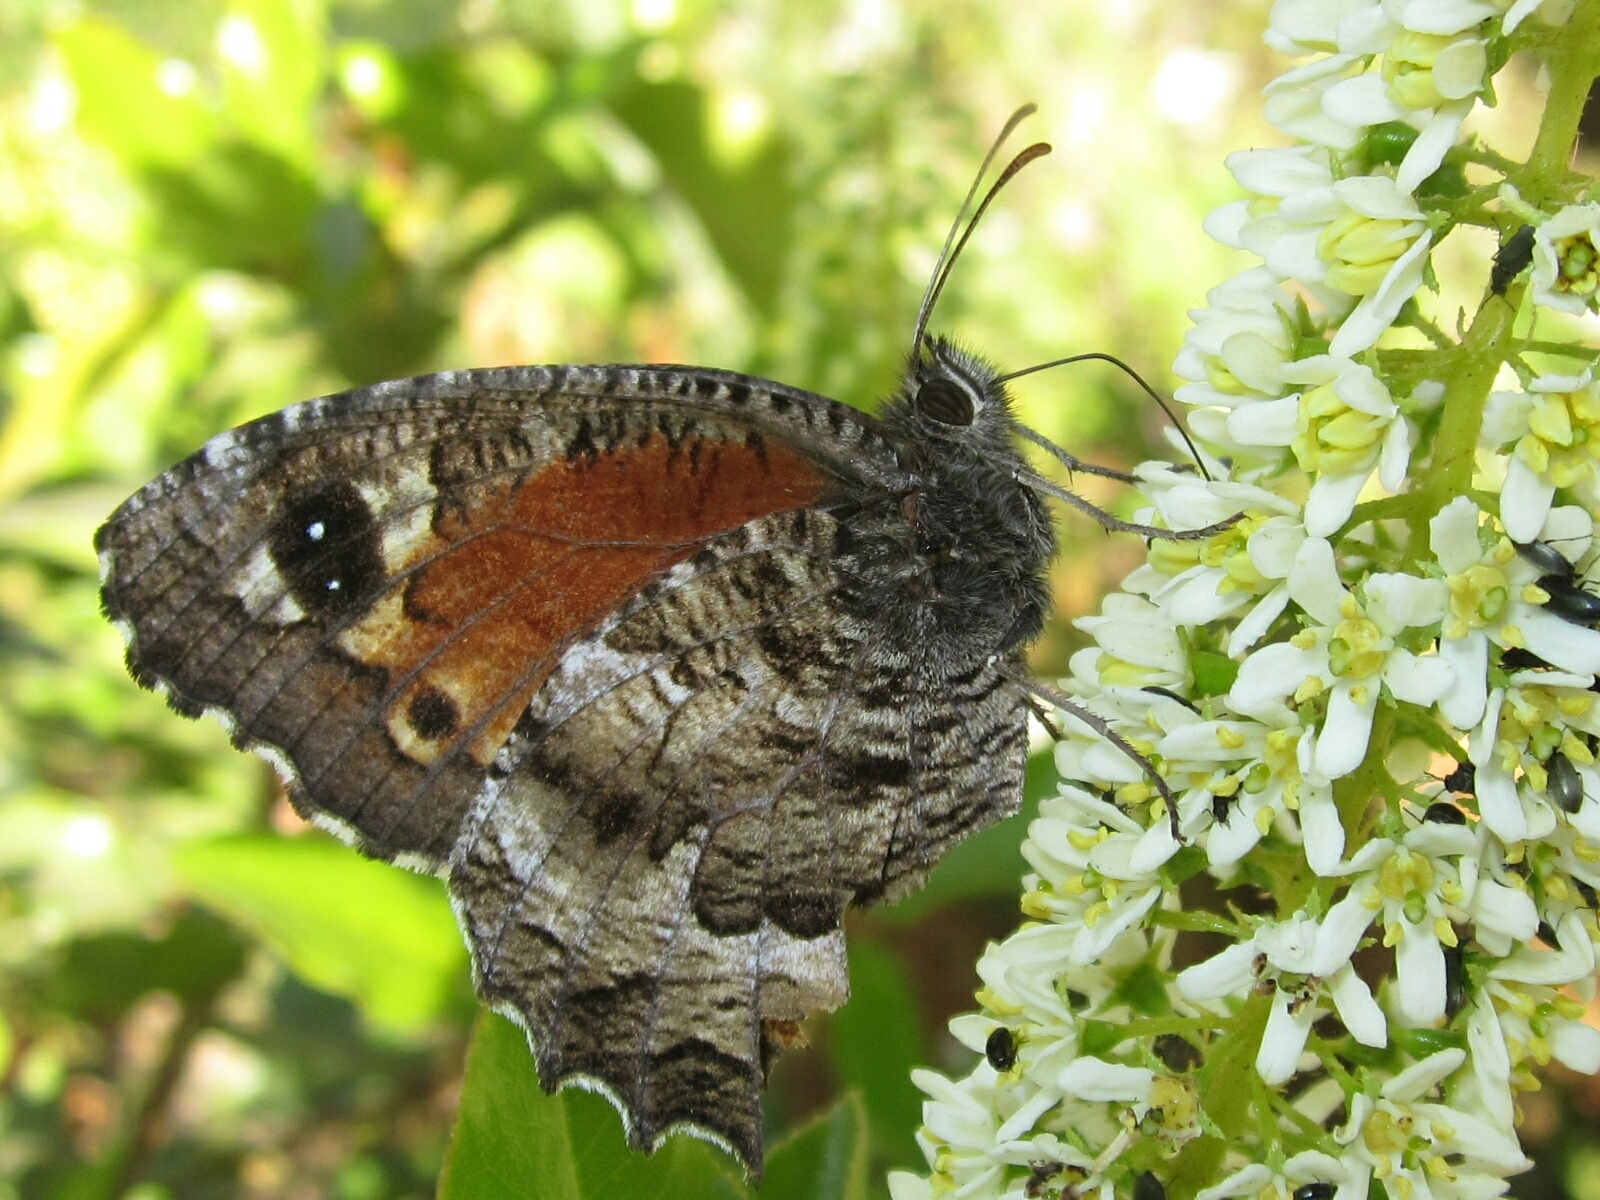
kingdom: Animalia
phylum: Arthropoda
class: Insecta
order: Lepidoptera
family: Nymphalidae
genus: Elina
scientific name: Elina montroli
